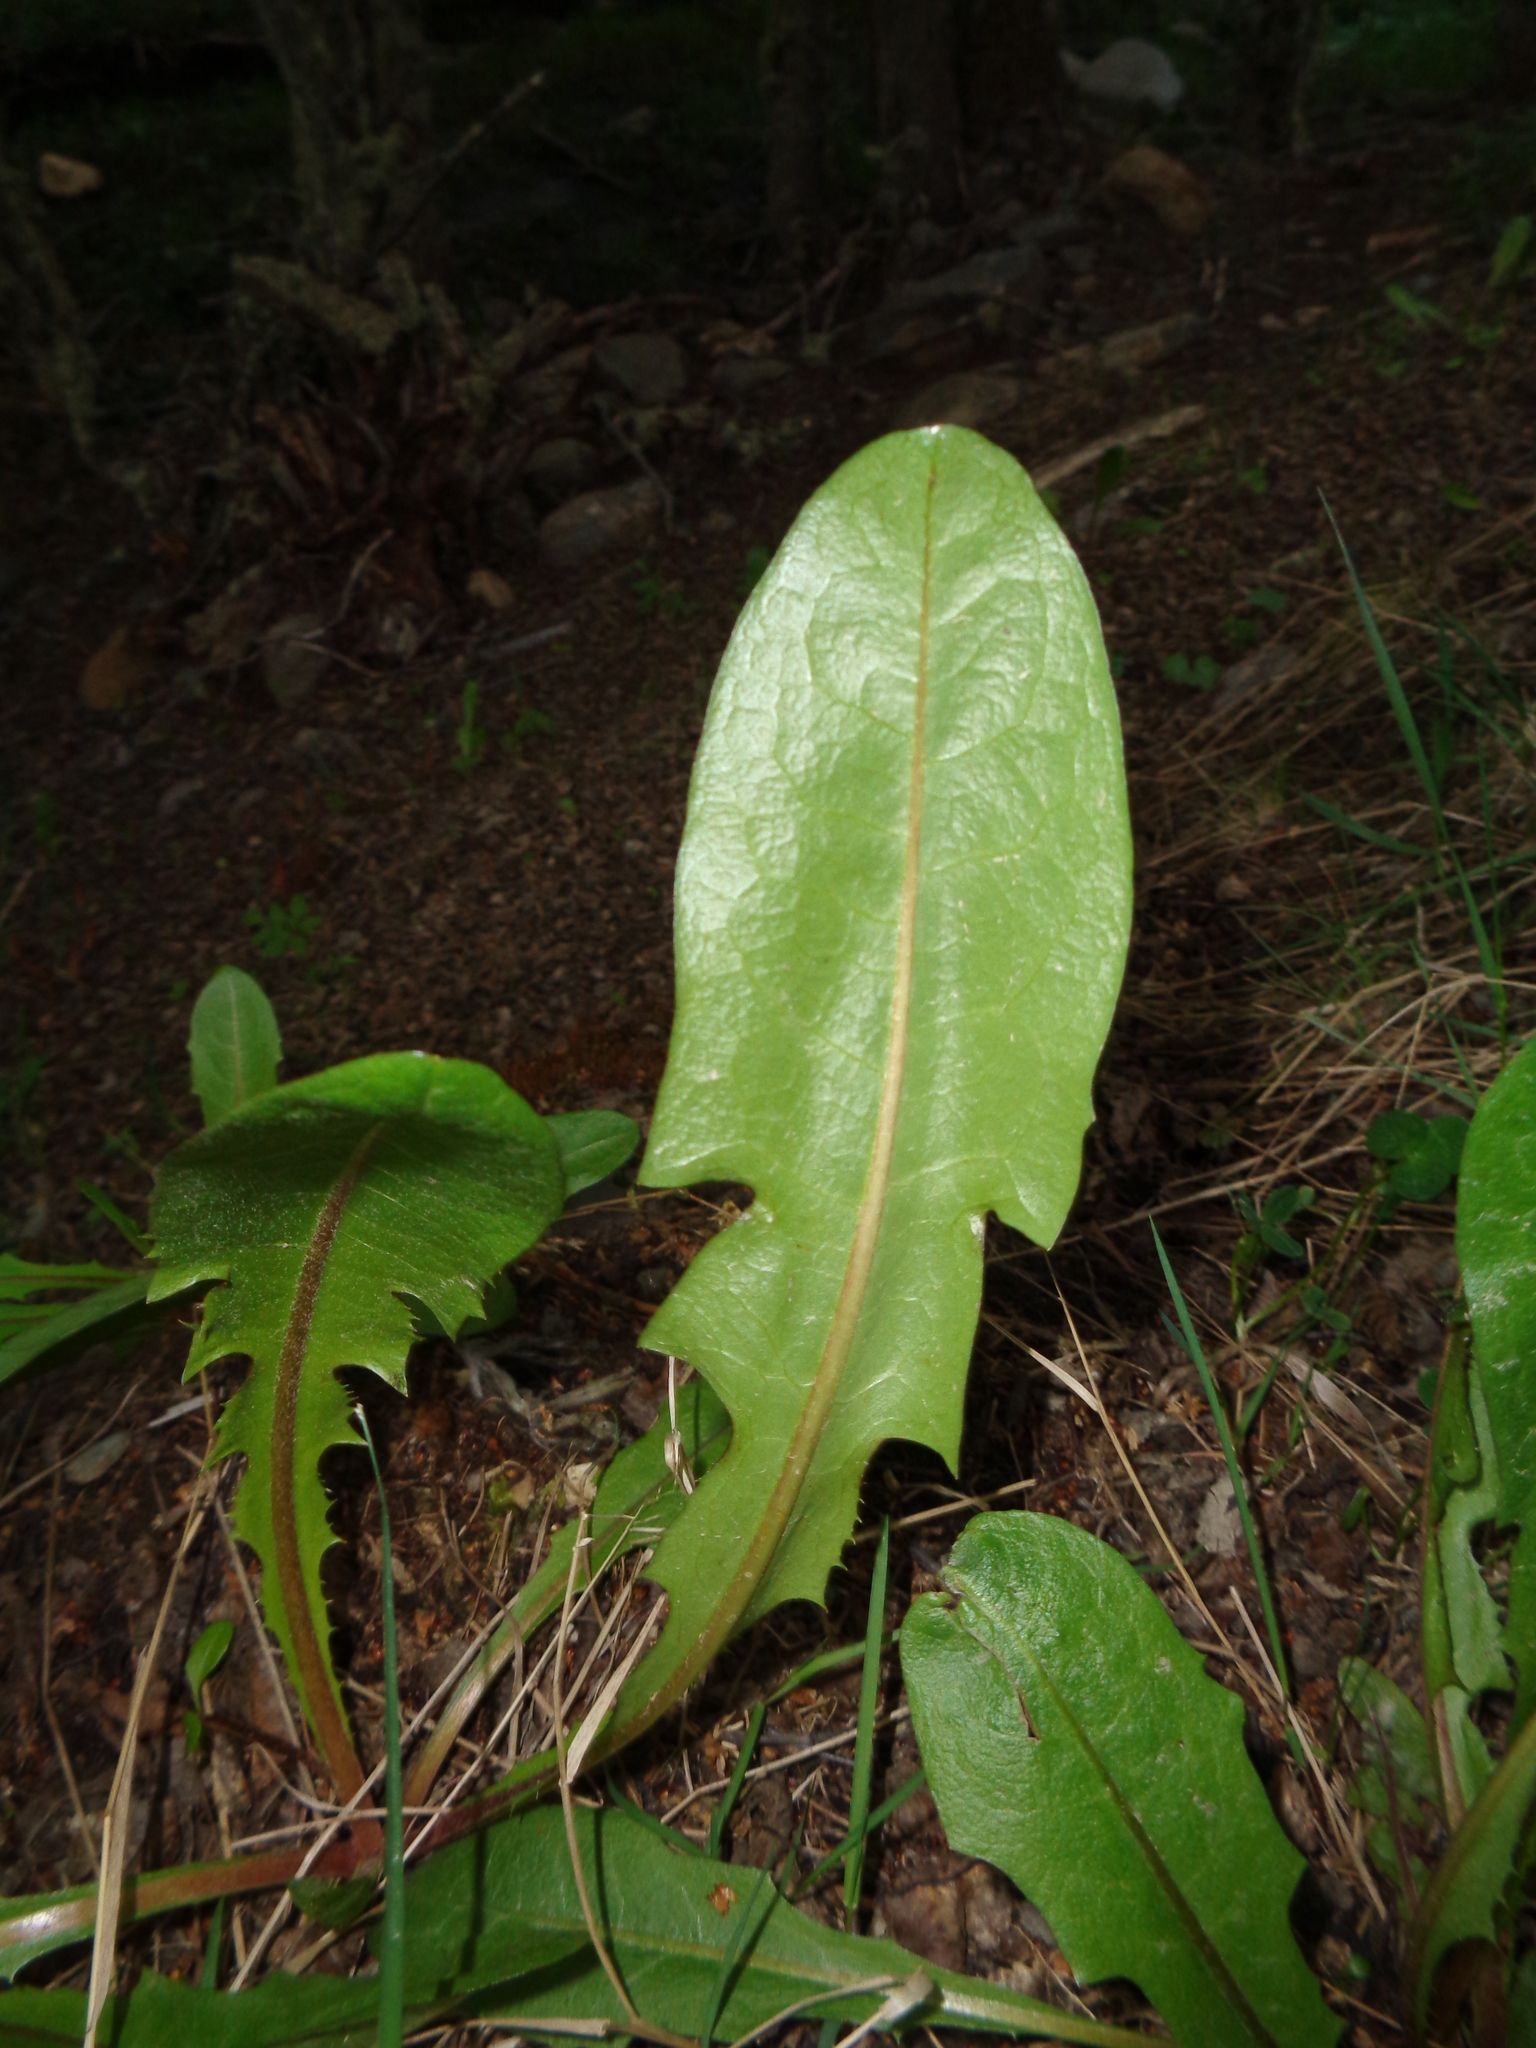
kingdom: Plantae
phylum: Tracheophyta
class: Magnoliopsida
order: Asterales
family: Asteraceae
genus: Taraxacum
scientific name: Taraxacum officinale
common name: Common dandelion
